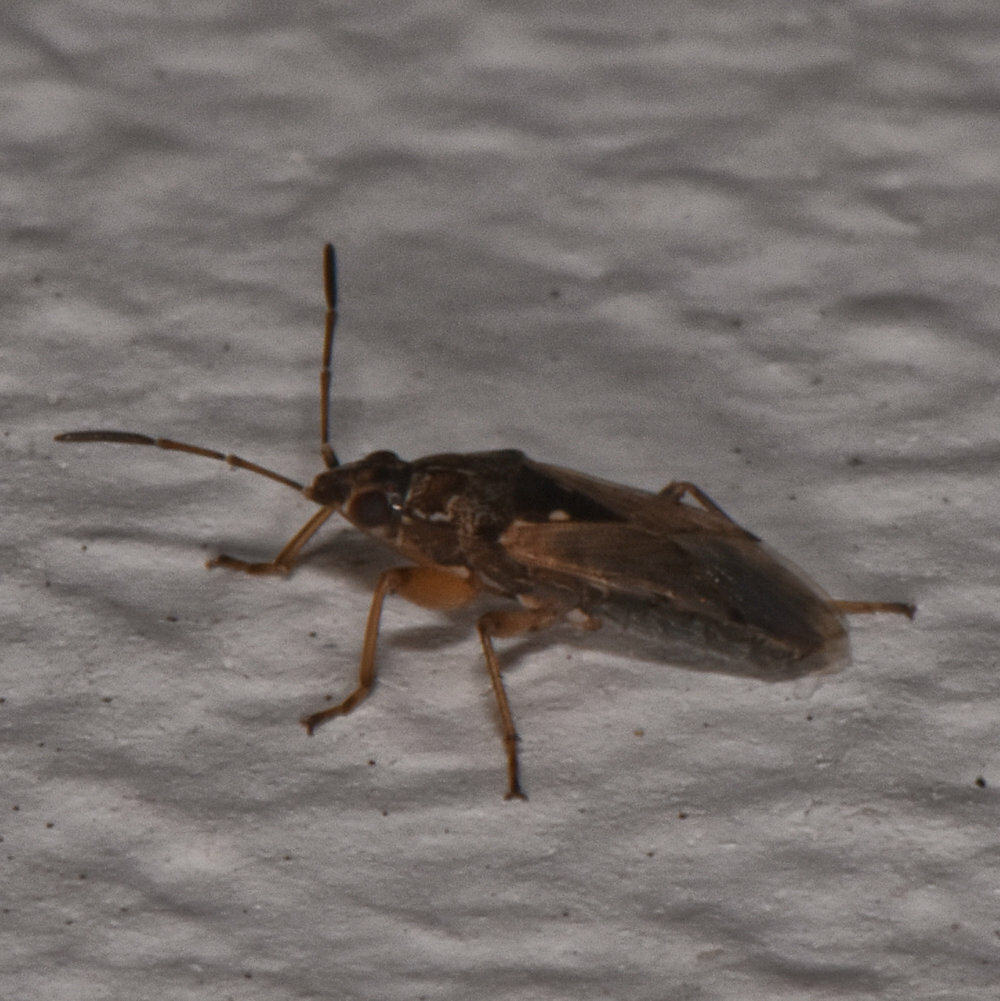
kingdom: Animalia
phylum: Arthropoda
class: Insecta
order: Hemiptera
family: Rhyparochromidae
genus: Graphoraglius
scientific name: Graphoraglius novitius
